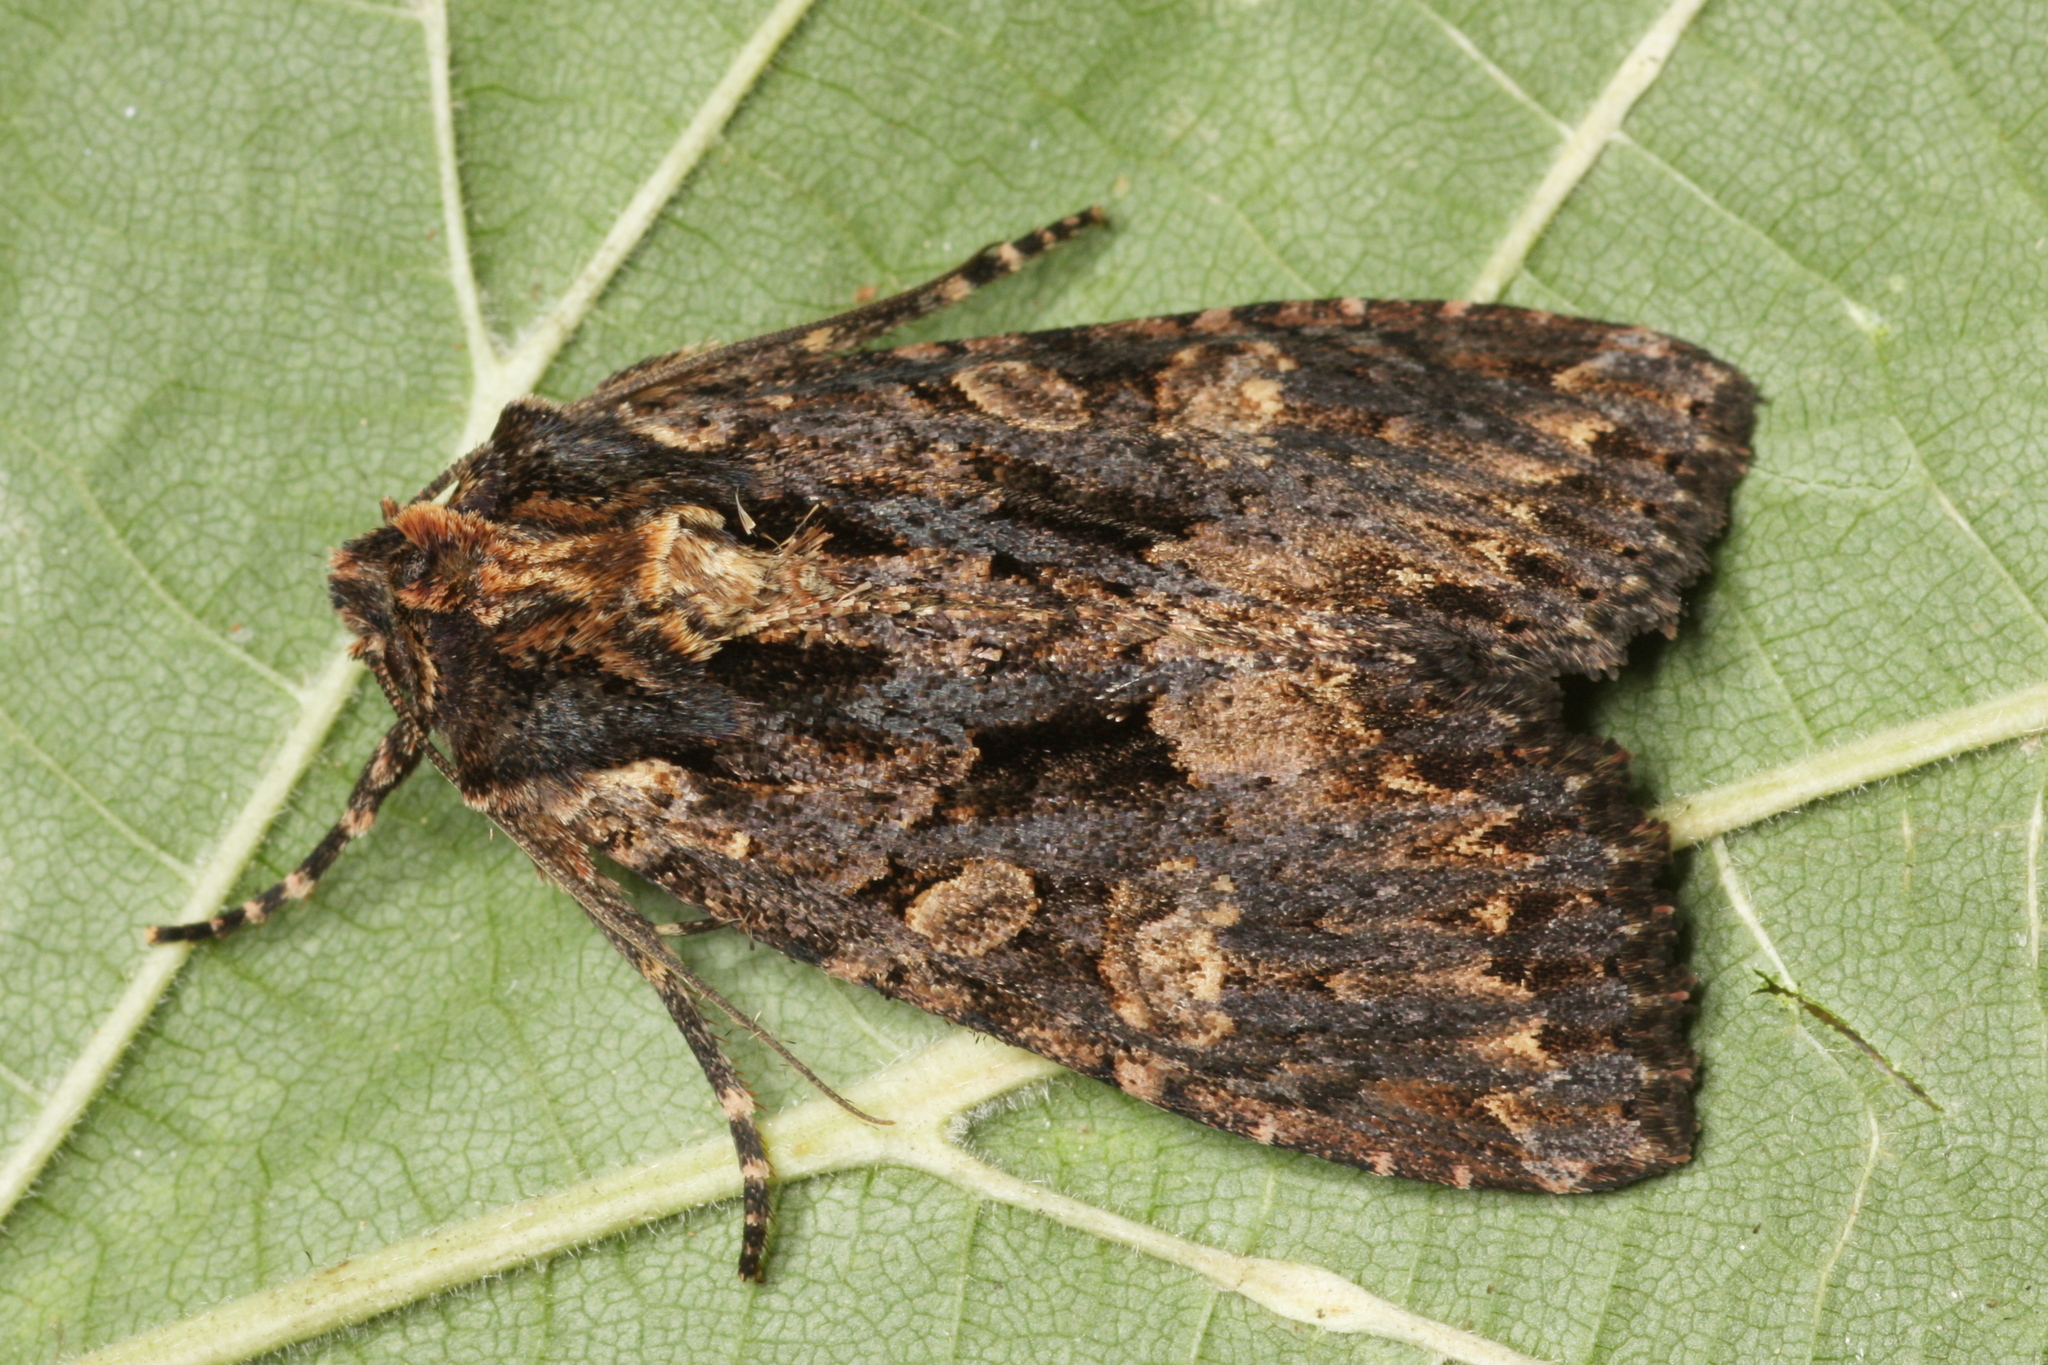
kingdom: Animalia
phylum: Arthropoda
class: Insecta
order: Lepidoptera
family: Noctuidae
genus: Mniotype
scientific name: Mniotype satura
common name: Beautiful arches
